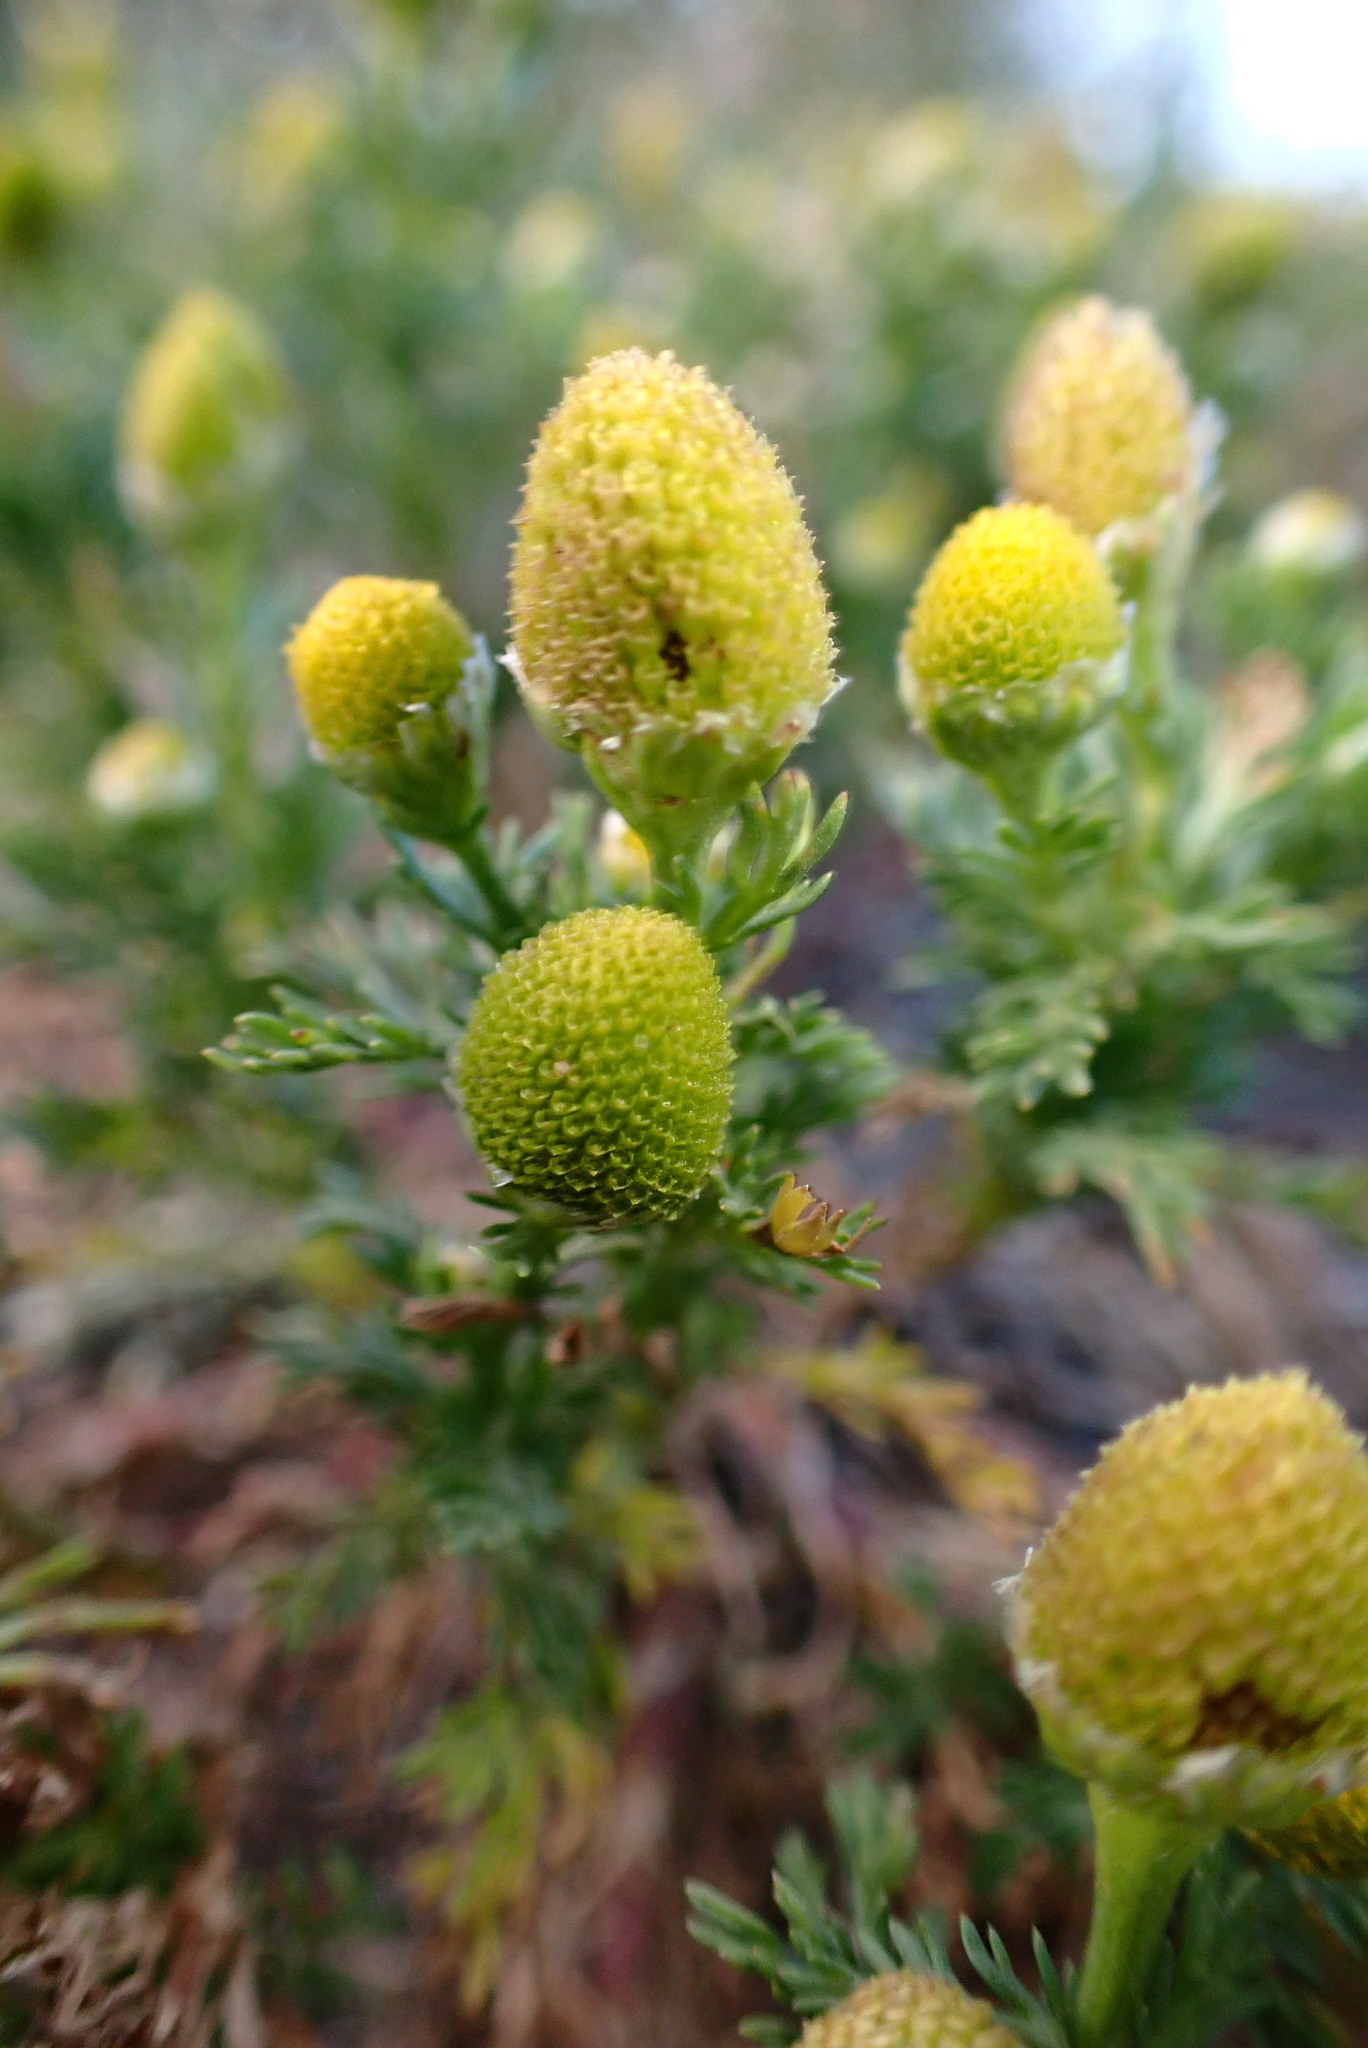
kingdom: Plantae
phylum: Tracheophyta
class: Magnoliopsida
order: Asterales
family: Asteraceae
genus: Matricaria
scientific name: Matricaria discoidea
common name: Disc mayweed
